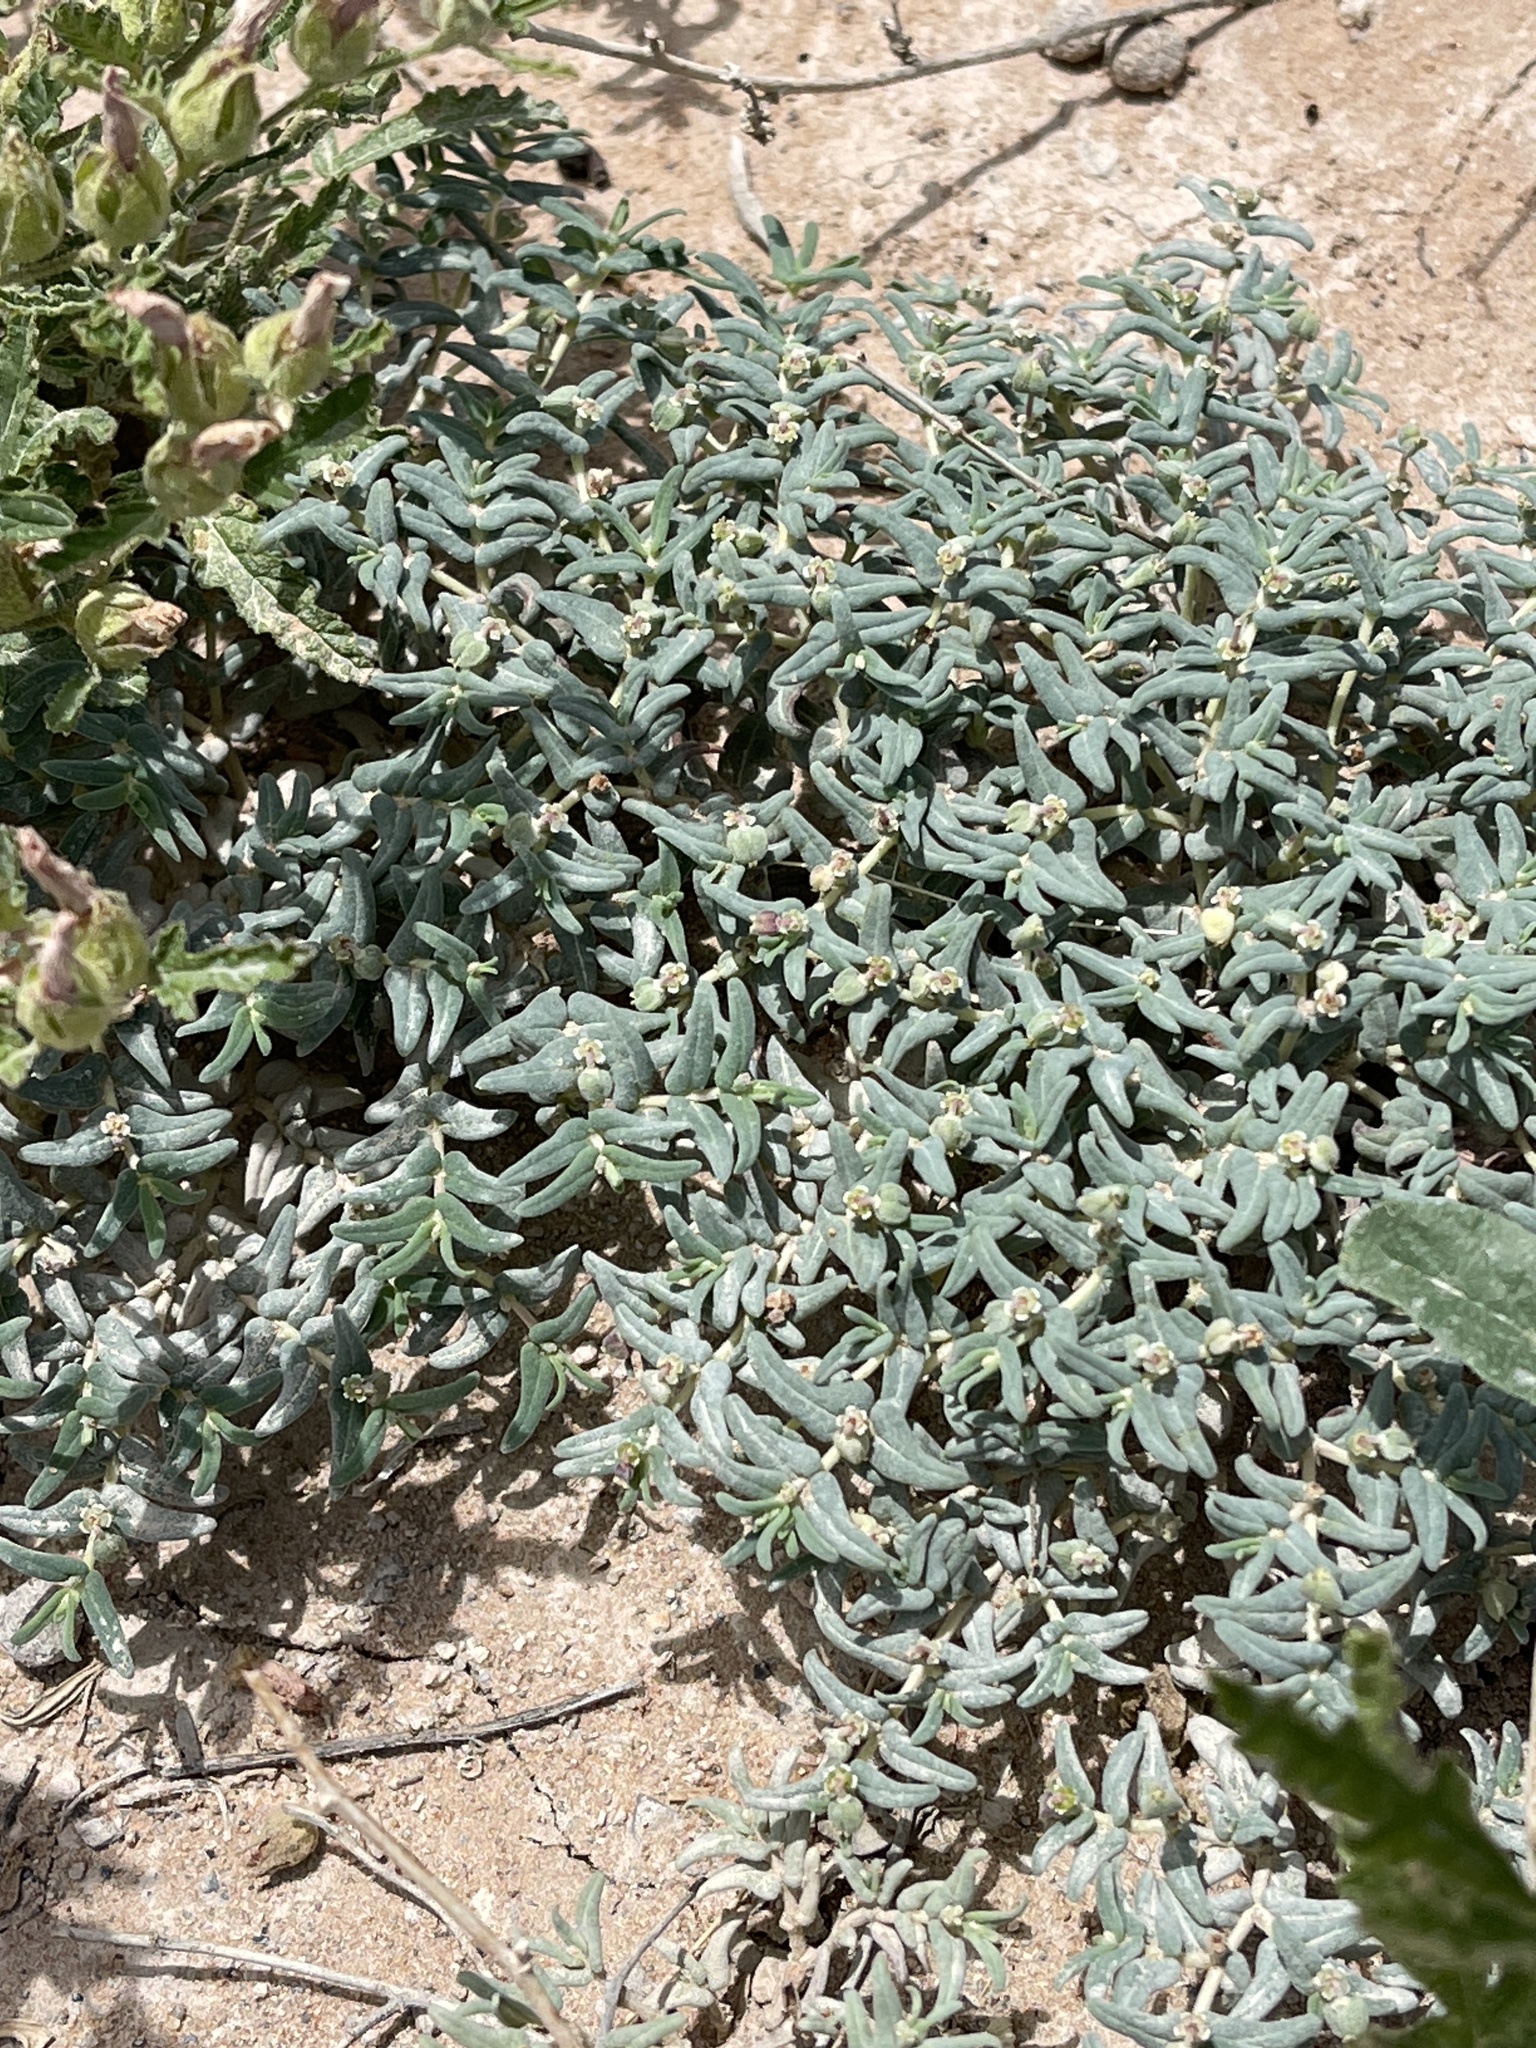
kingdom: Plantae
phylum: Tracheophyta
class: Magnoliopsida
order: Malpighiales
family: Euphorbiaceae
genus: Euphorbia
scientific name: Euphorbia lata
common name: Hoary euphorbia
